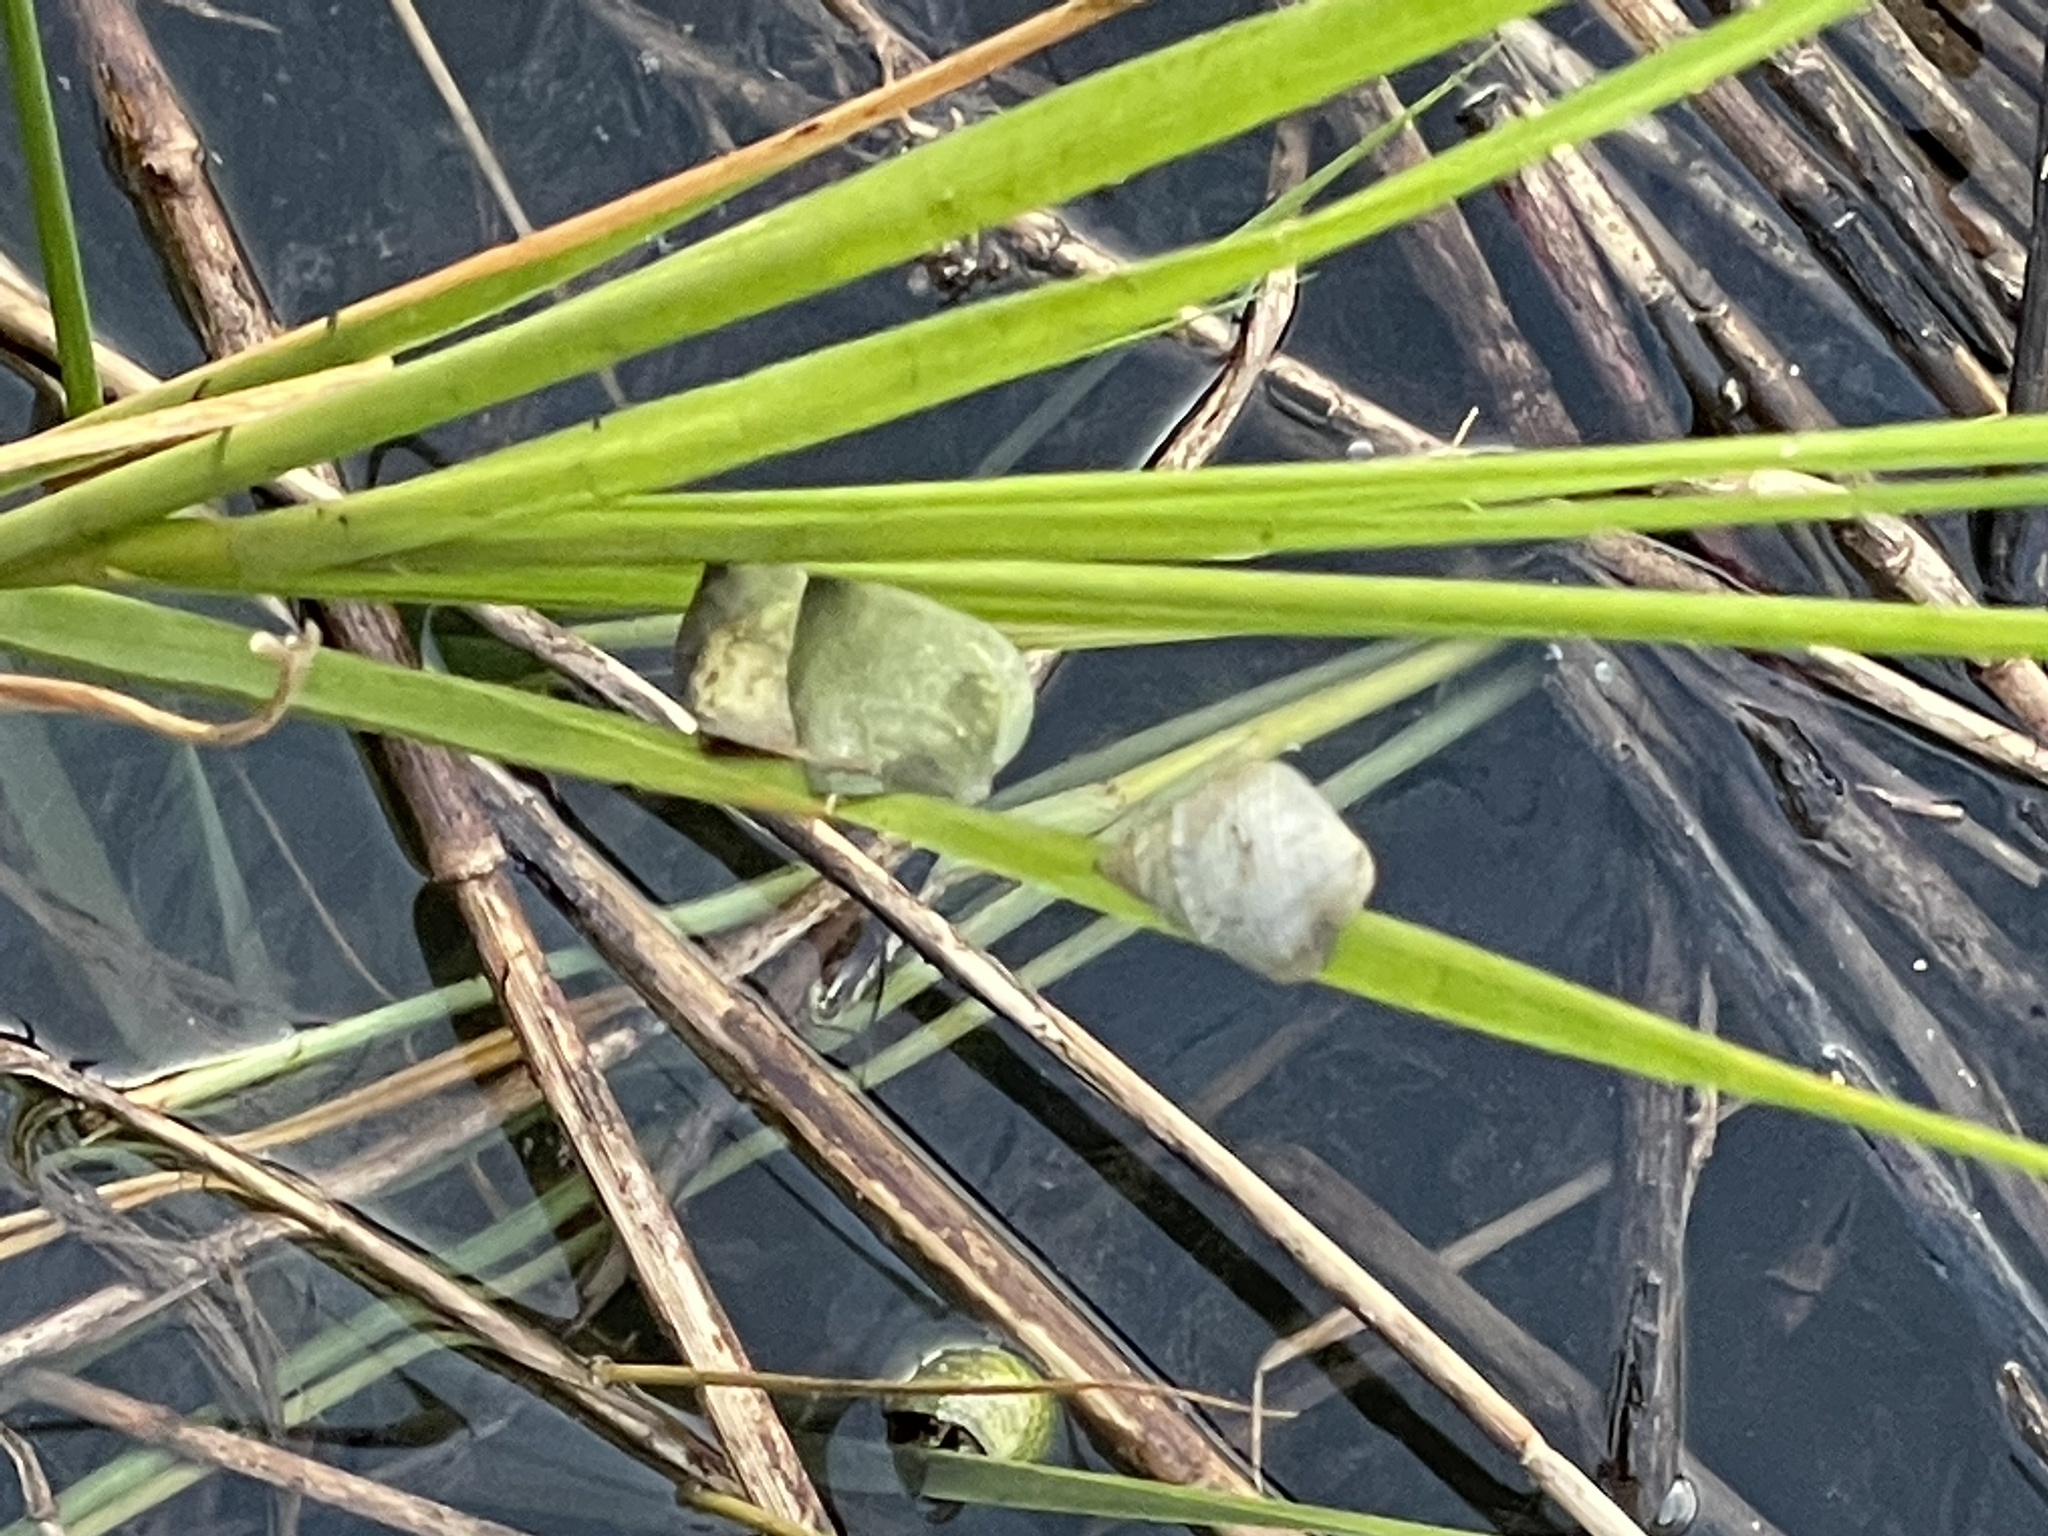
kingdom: Animalia
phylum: Mollusca
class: Gastropoda
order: Littorinimorpha
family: Littorinidae
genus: Littoraria
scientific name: Littoraria irrorata
